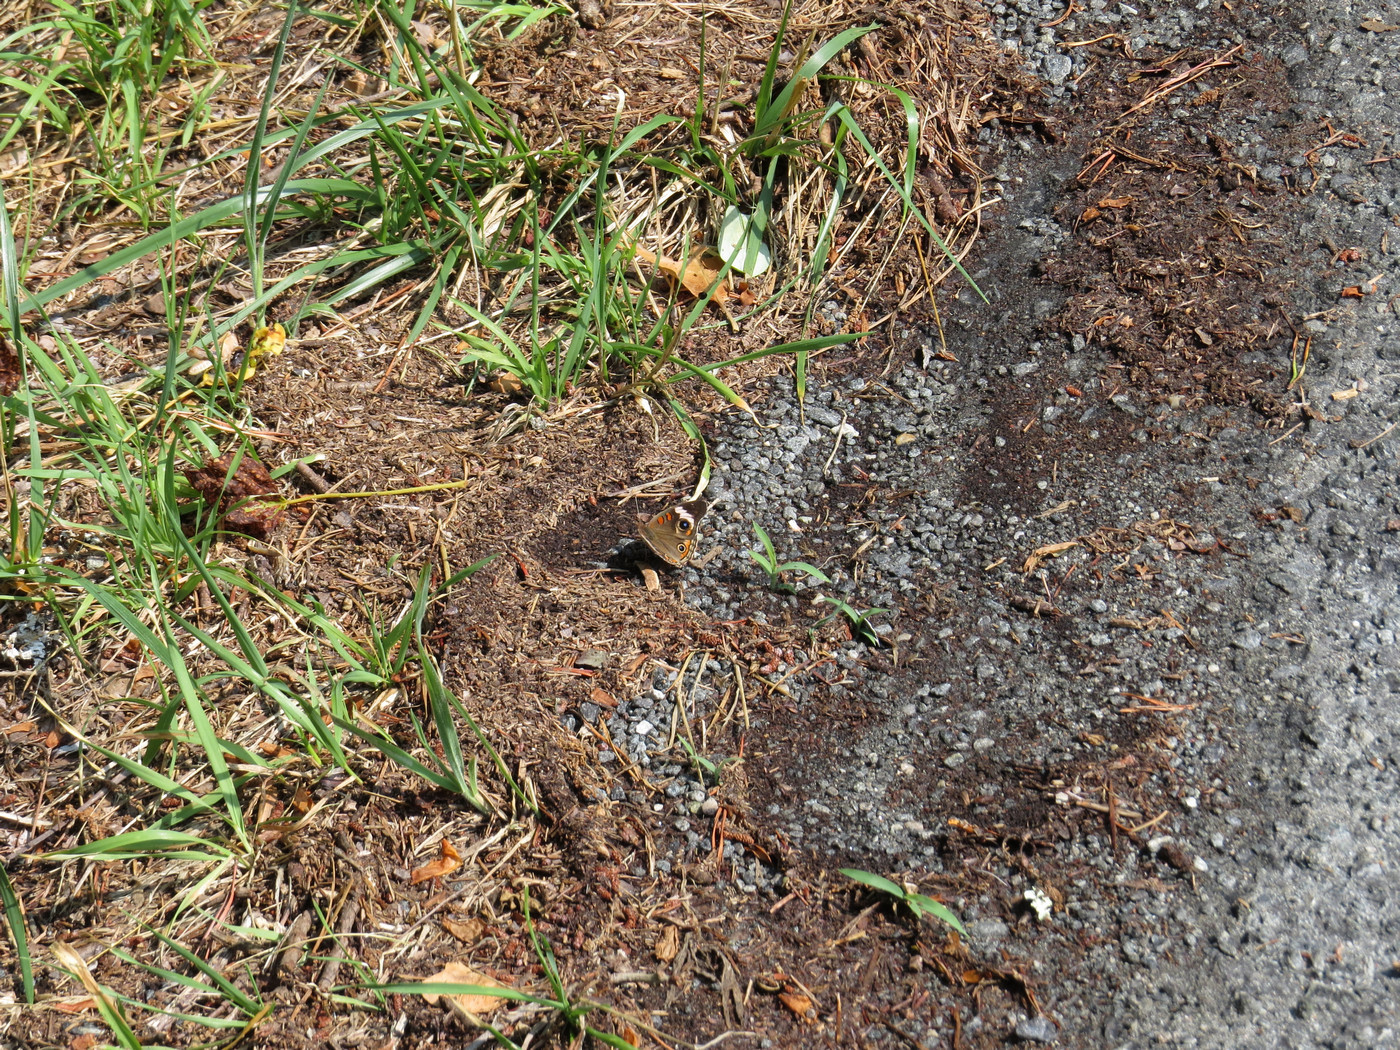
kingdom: Animalia
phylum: Arthropoda
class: Insecta
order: Lepidoptera
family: Nymphalidae
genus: Junonia
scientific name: Junonia coenia
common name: Common buckeye
